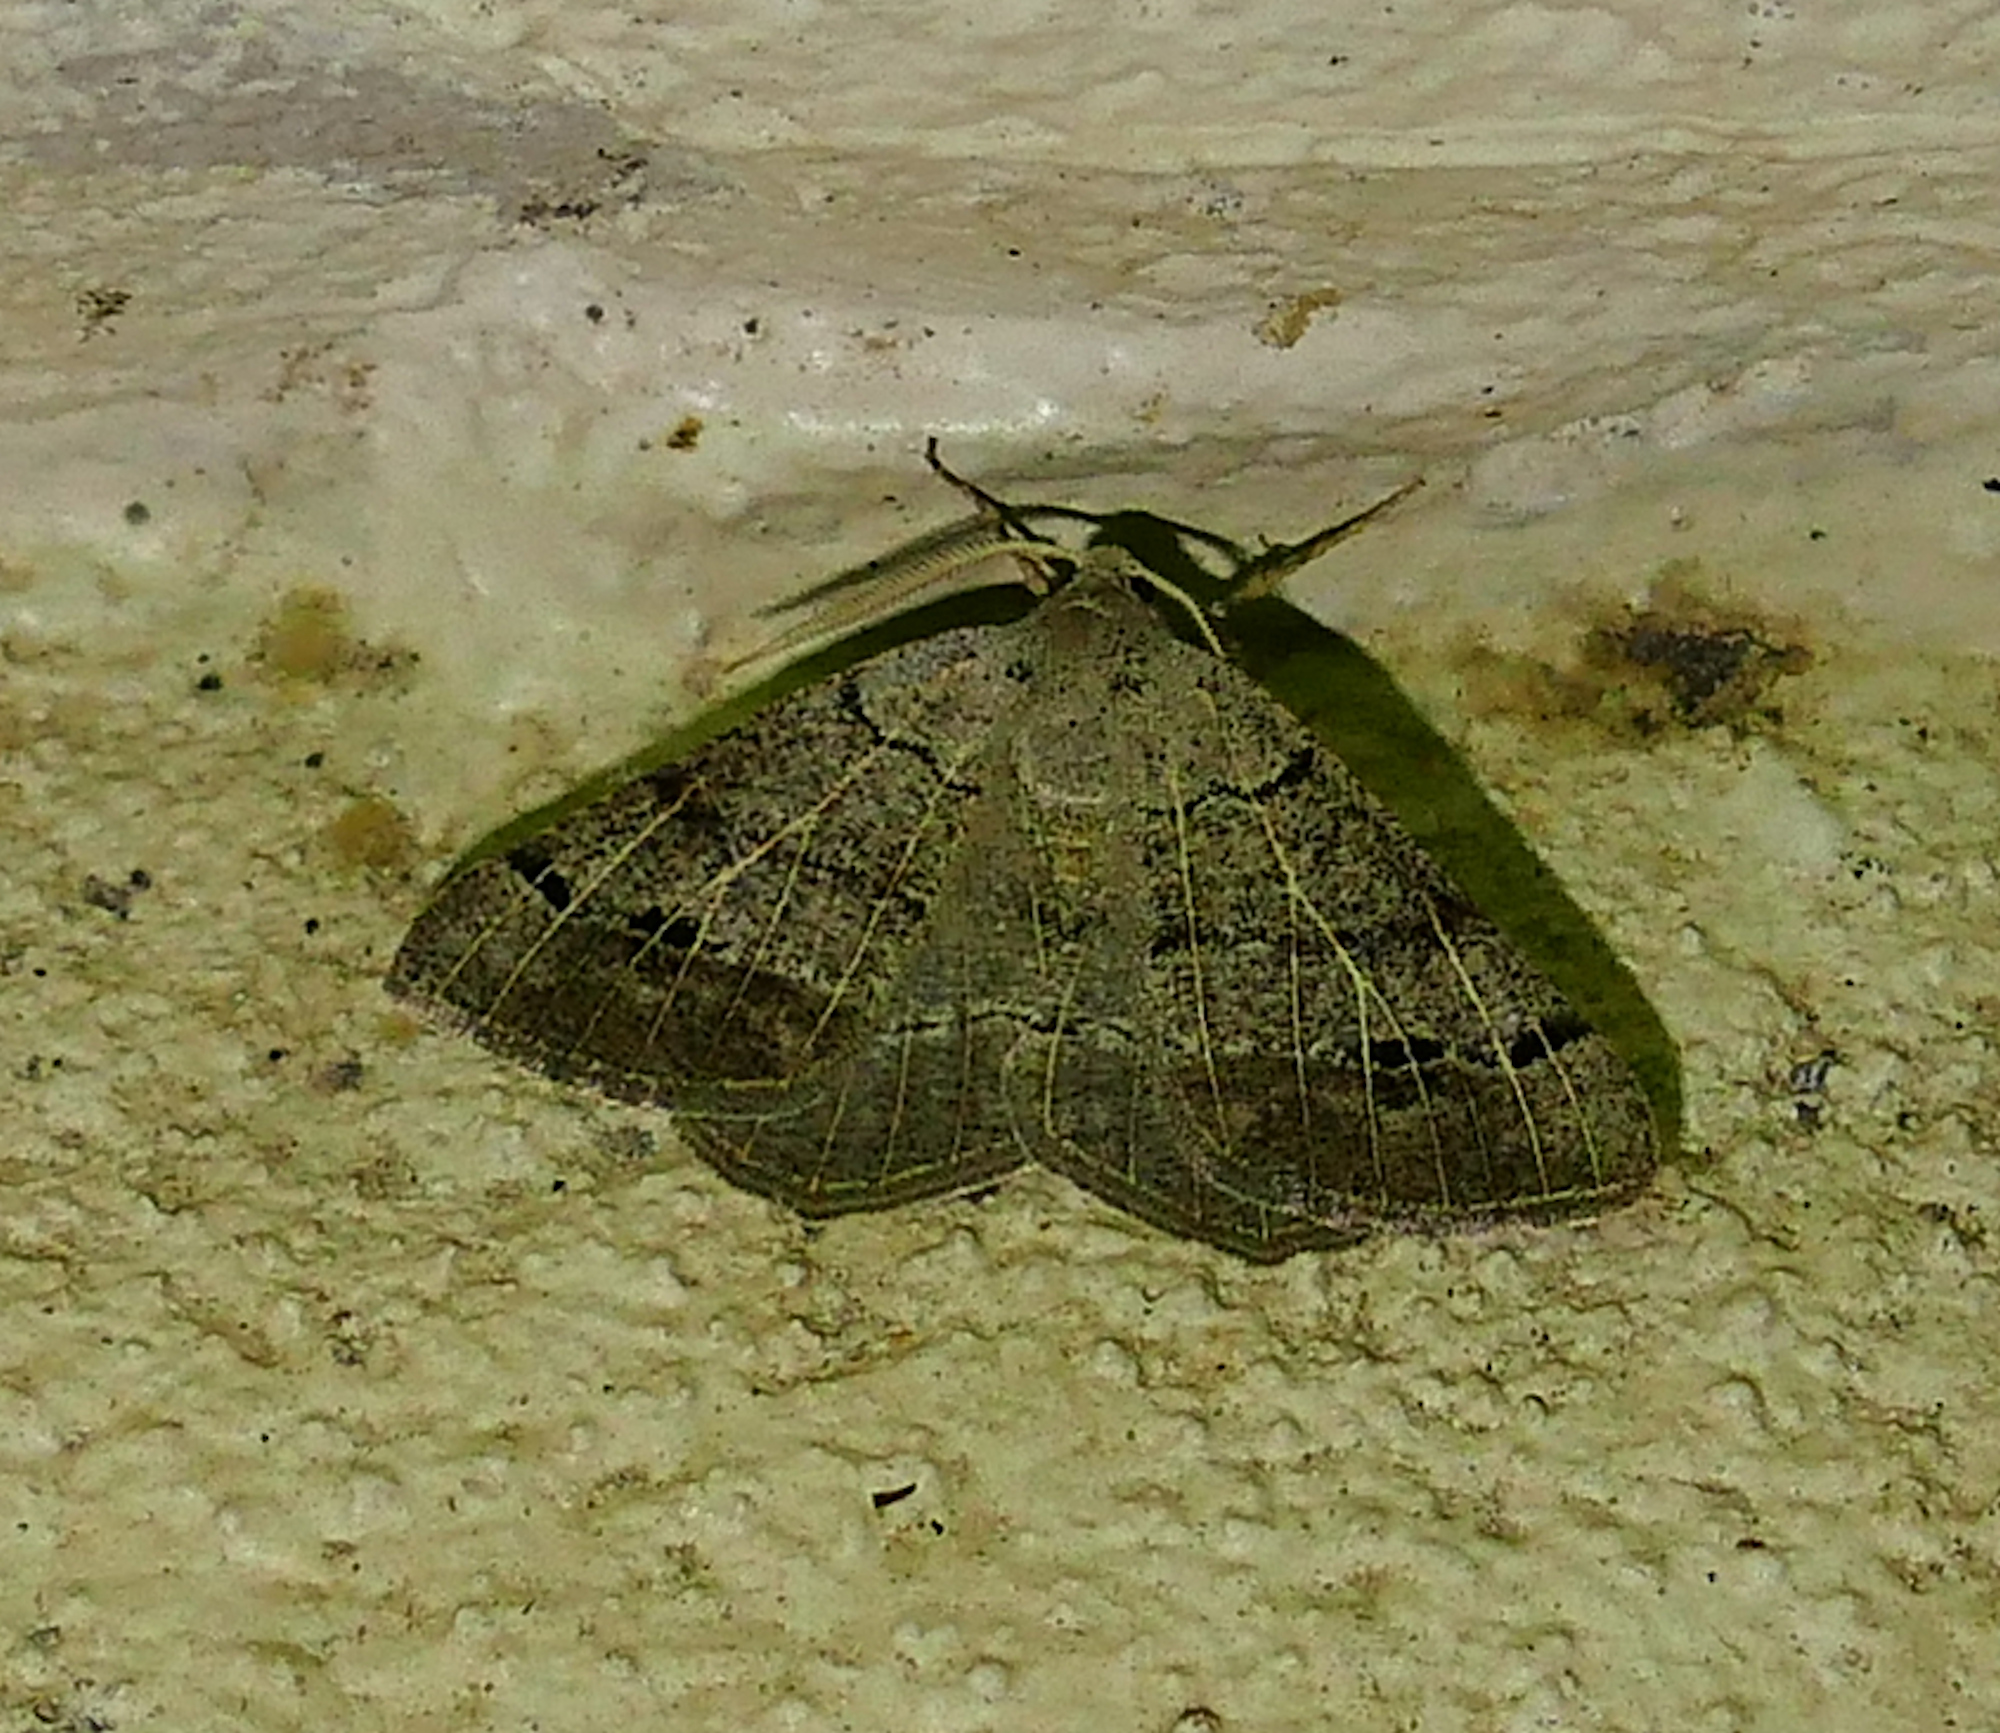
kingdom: Animalia
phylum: Arthropoda
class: Insecta
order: Lepidoptera
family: Geometridae
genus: Isturgia
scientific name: Isturgia dislocaria
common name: Pale-viened enconista
